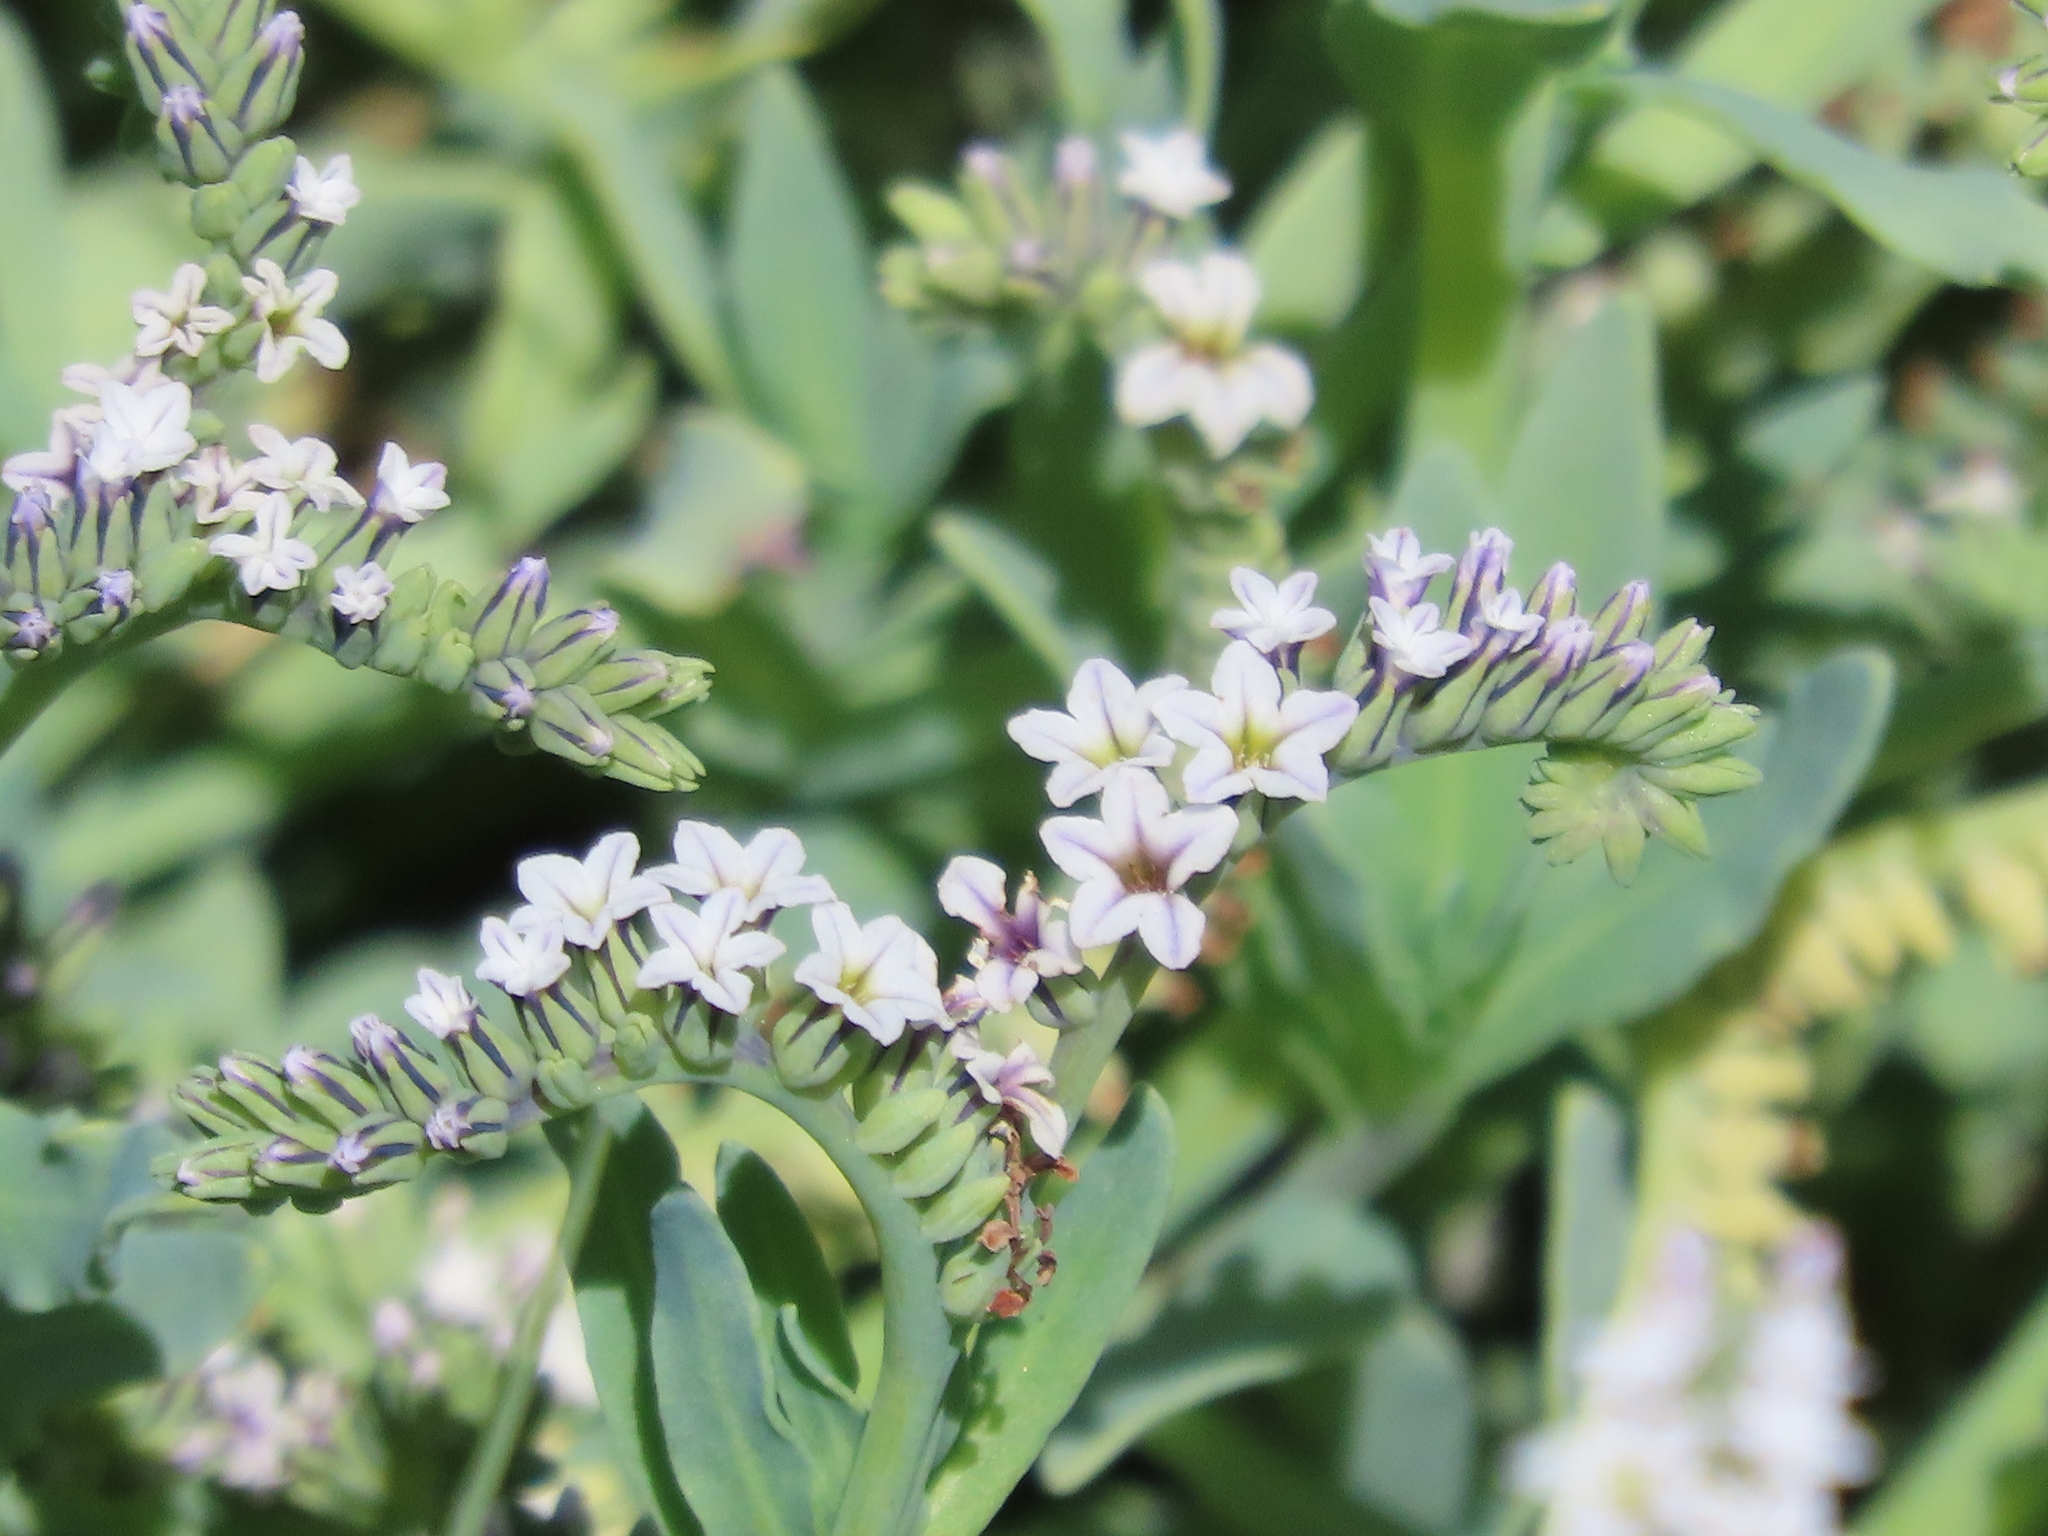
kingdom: Plantae
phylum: Tracheophyta
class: Magnoliopsida
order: Boraginales
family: Heliotropiaceae
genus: Heliotropium
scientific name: Heliotropium curassavicum
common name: Seaside heliotrope
